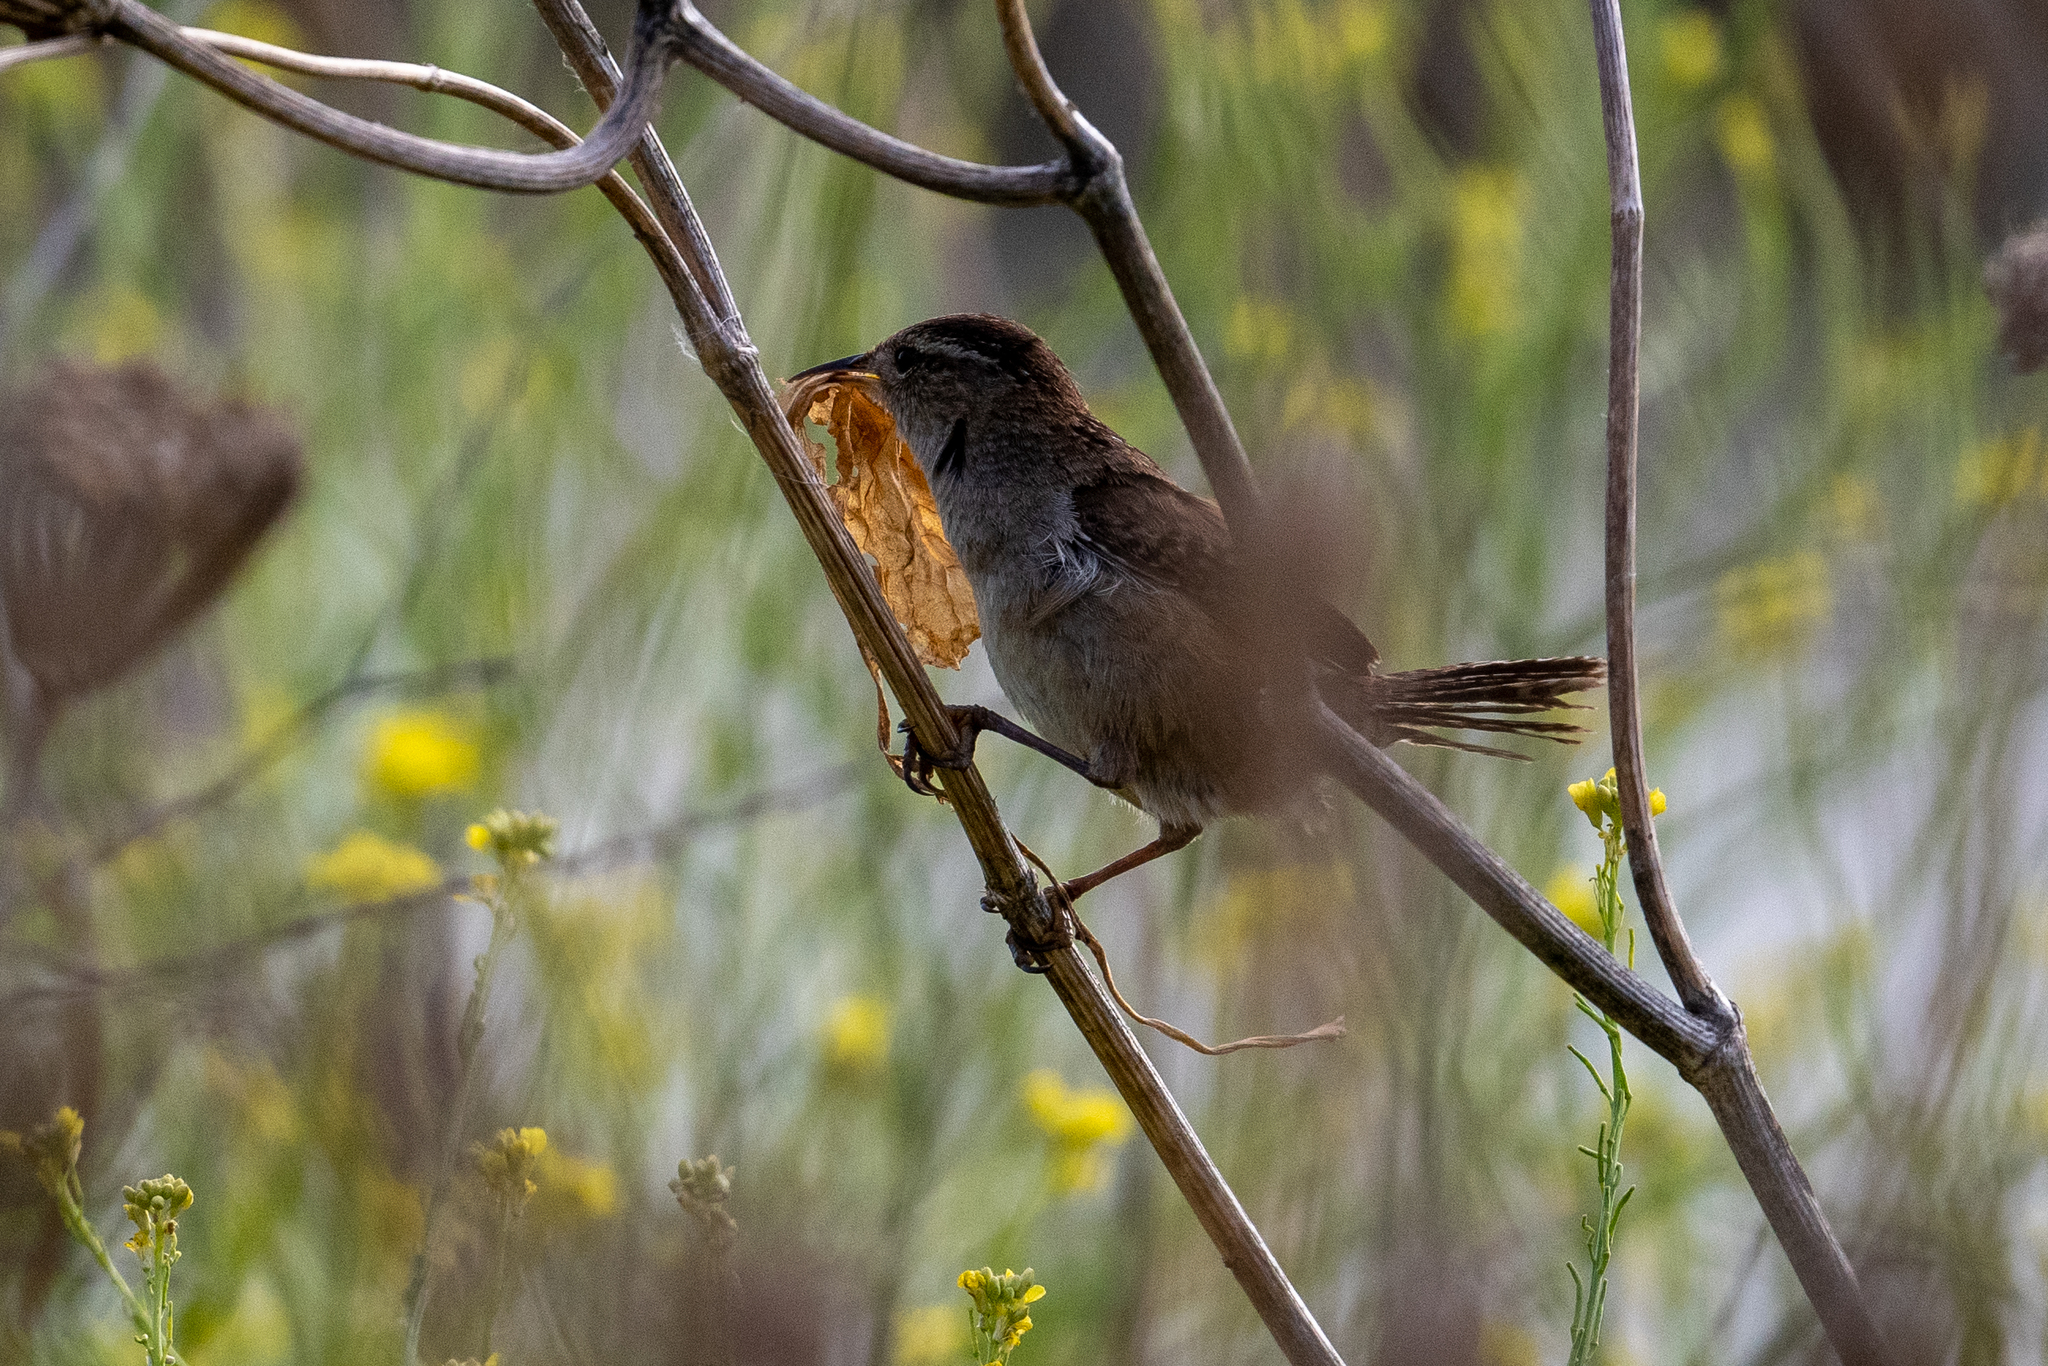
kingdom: Animalia
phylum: Chordata
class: Aves
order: Passeriformes
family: Troglodytidae
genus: Cistothorus
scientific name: Cistothorus palustris
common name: Marsh wren
